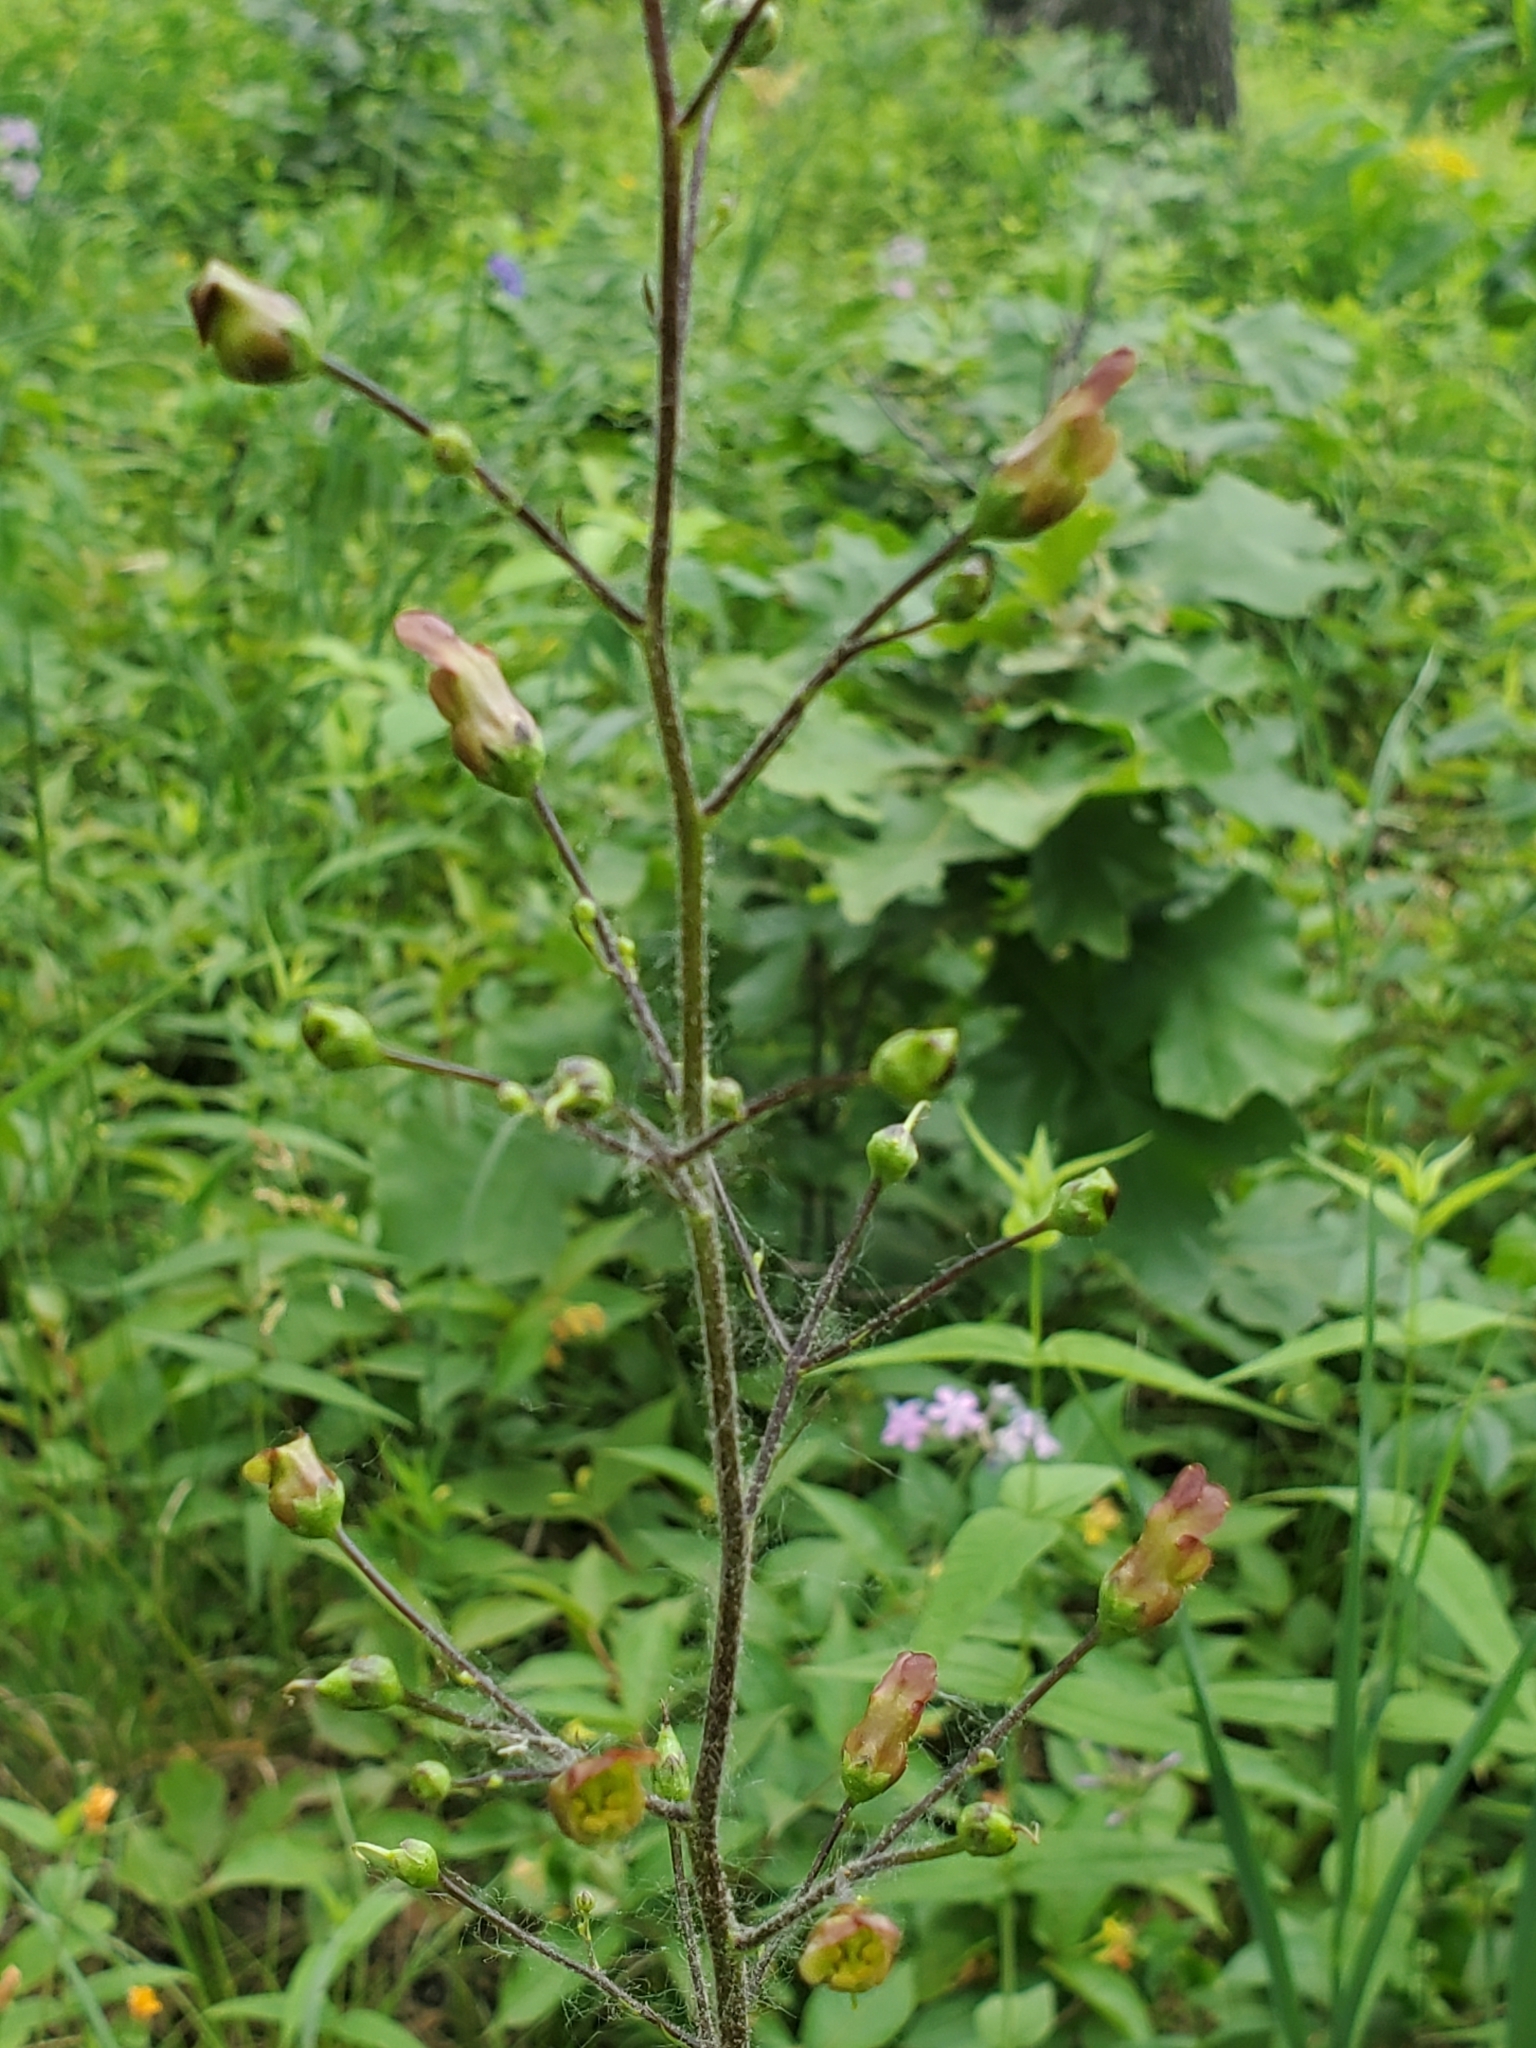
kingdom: Plantae
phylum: Tracheophyta
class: Magnoliopsida
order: Lamiales
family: Scrophulariaceae
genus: Scrophularia
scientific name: Scrophularia lanceolata
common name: American figwort
